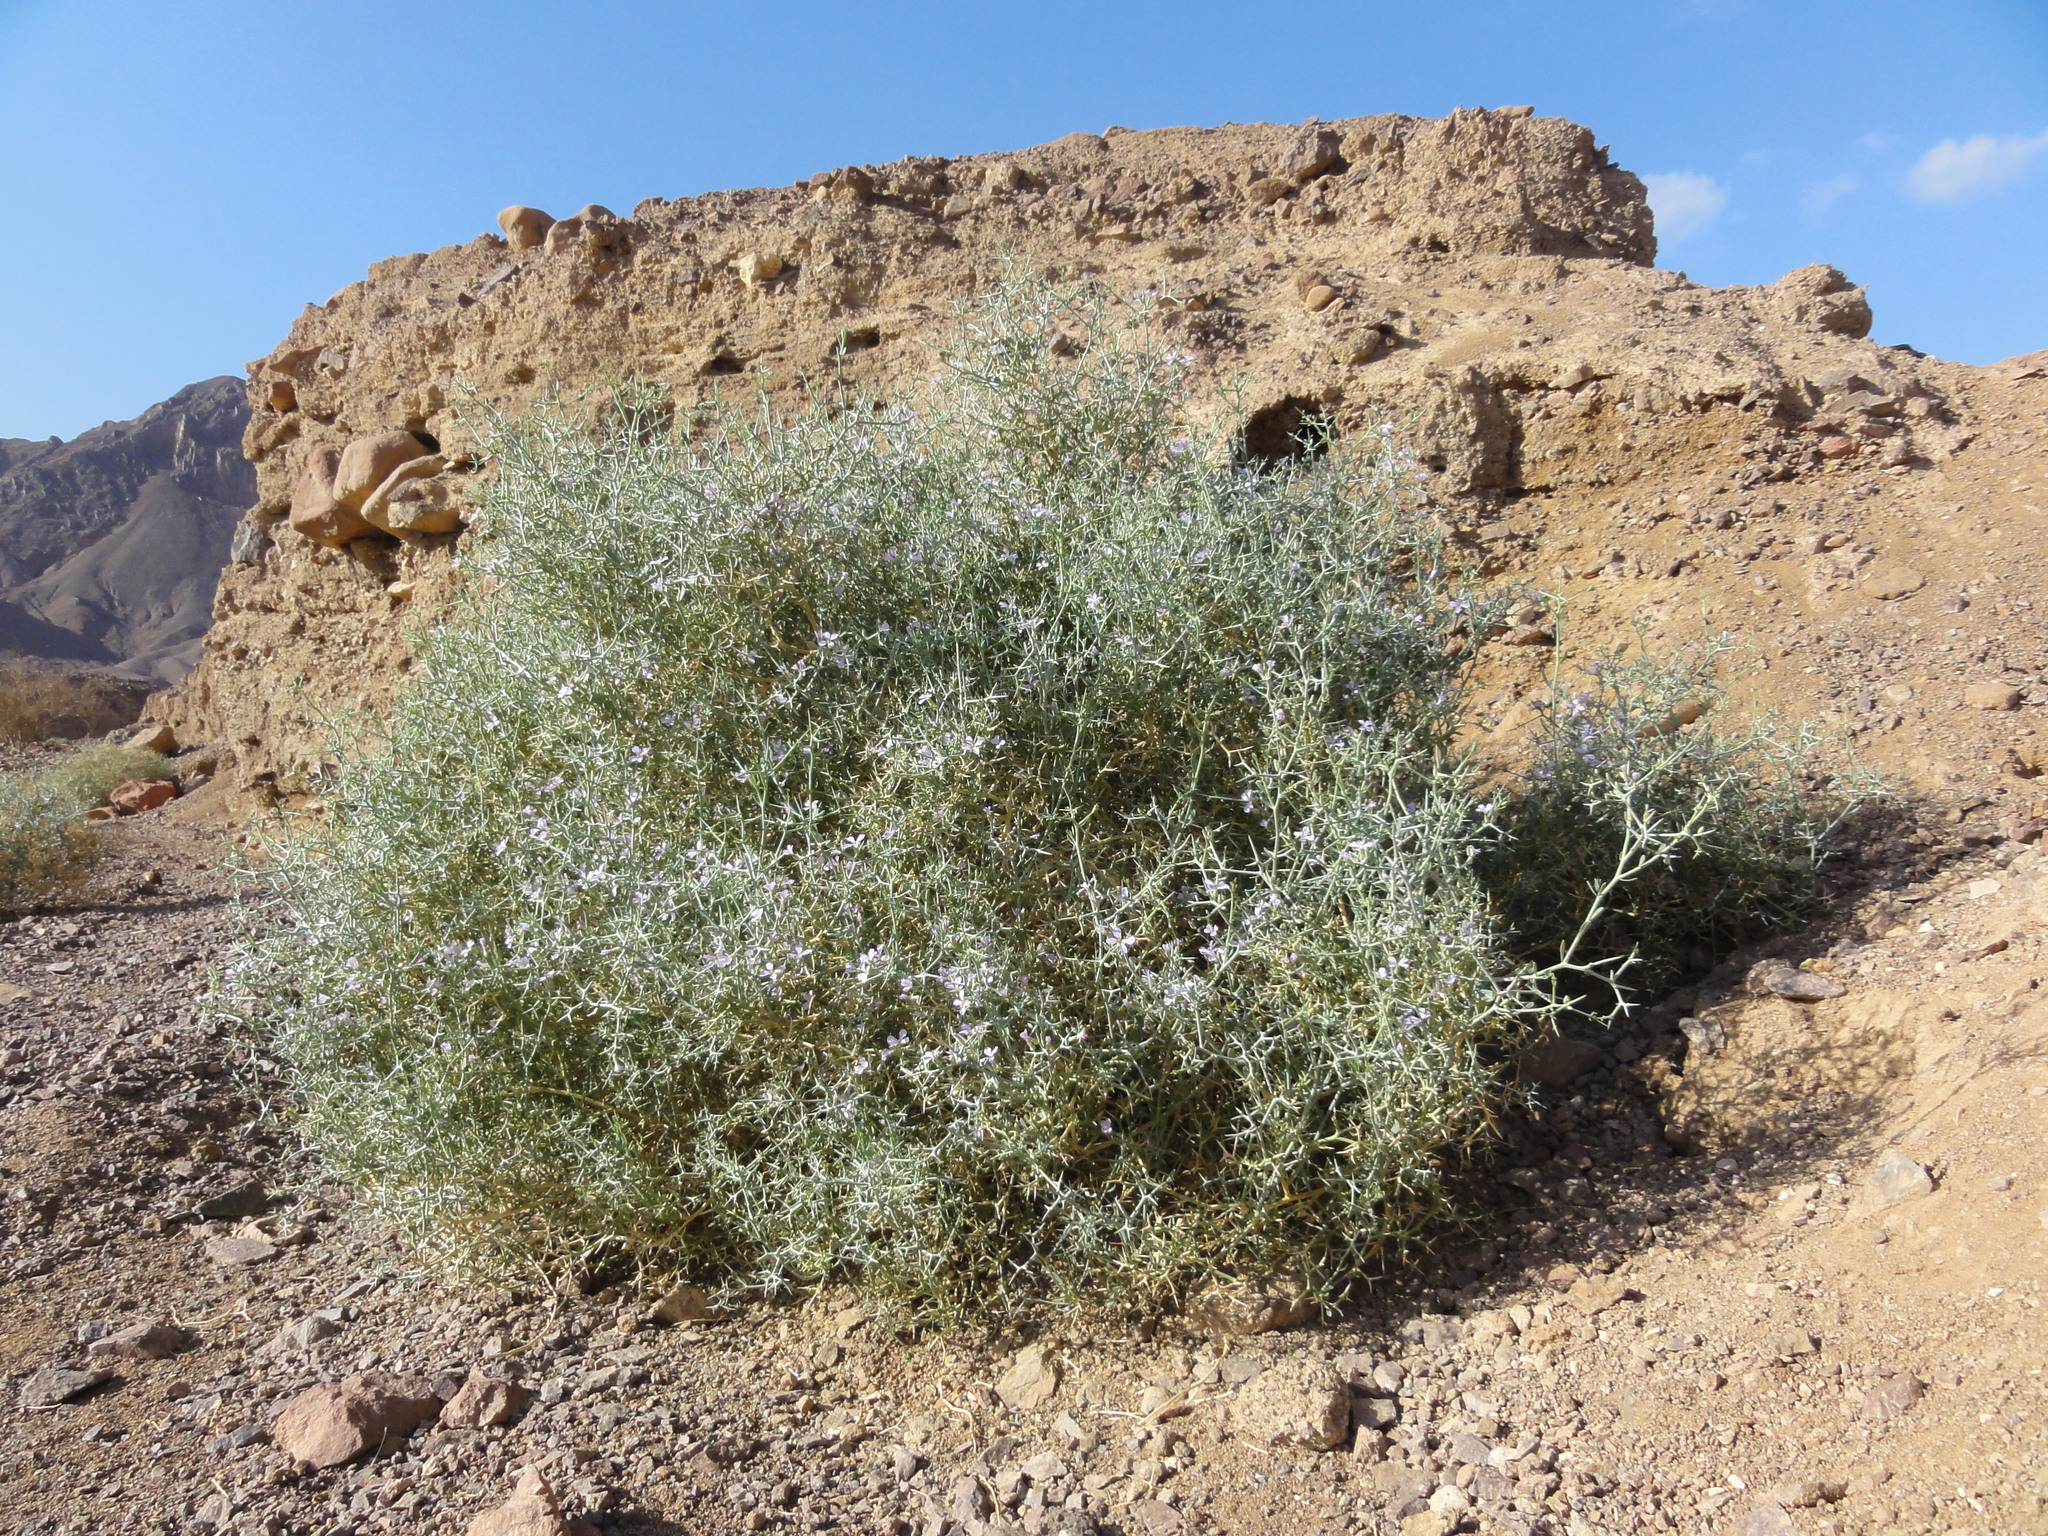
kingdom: Plantae
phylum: Tracheophyta
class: Magnoliopsida
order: Brassicales
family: Brassicaceae
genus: Zilla
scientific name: Zilla spinosa
